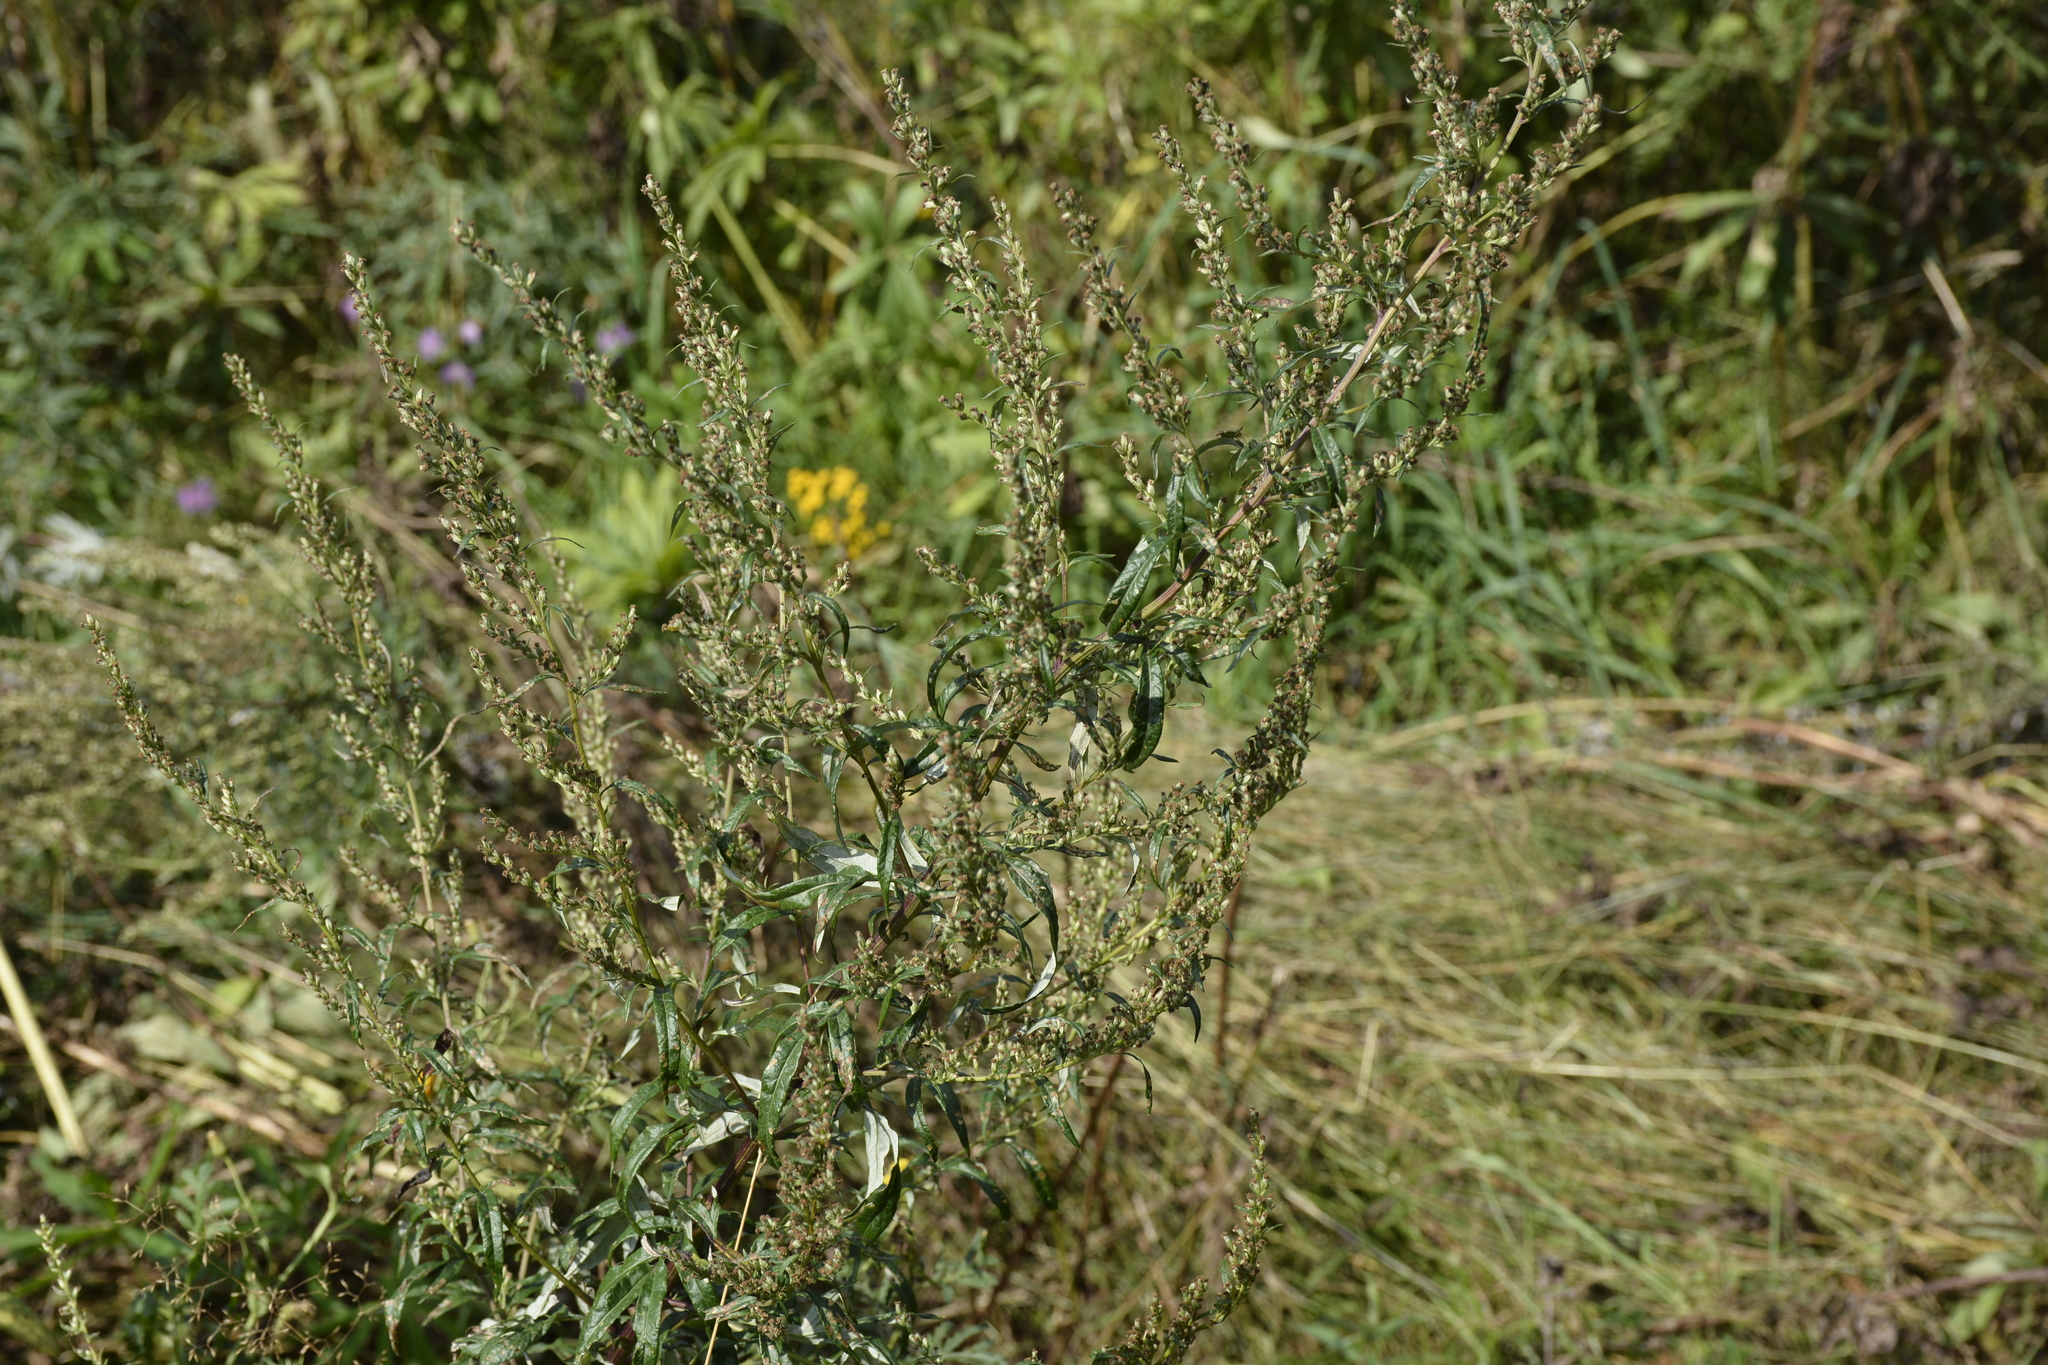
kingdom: Plantae
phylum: Tracheophyta
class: Magnoliopsida
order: Asterales
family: Asteraceae
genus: Artemisia
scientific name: Artemisia vulgaris
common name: Mugwort
